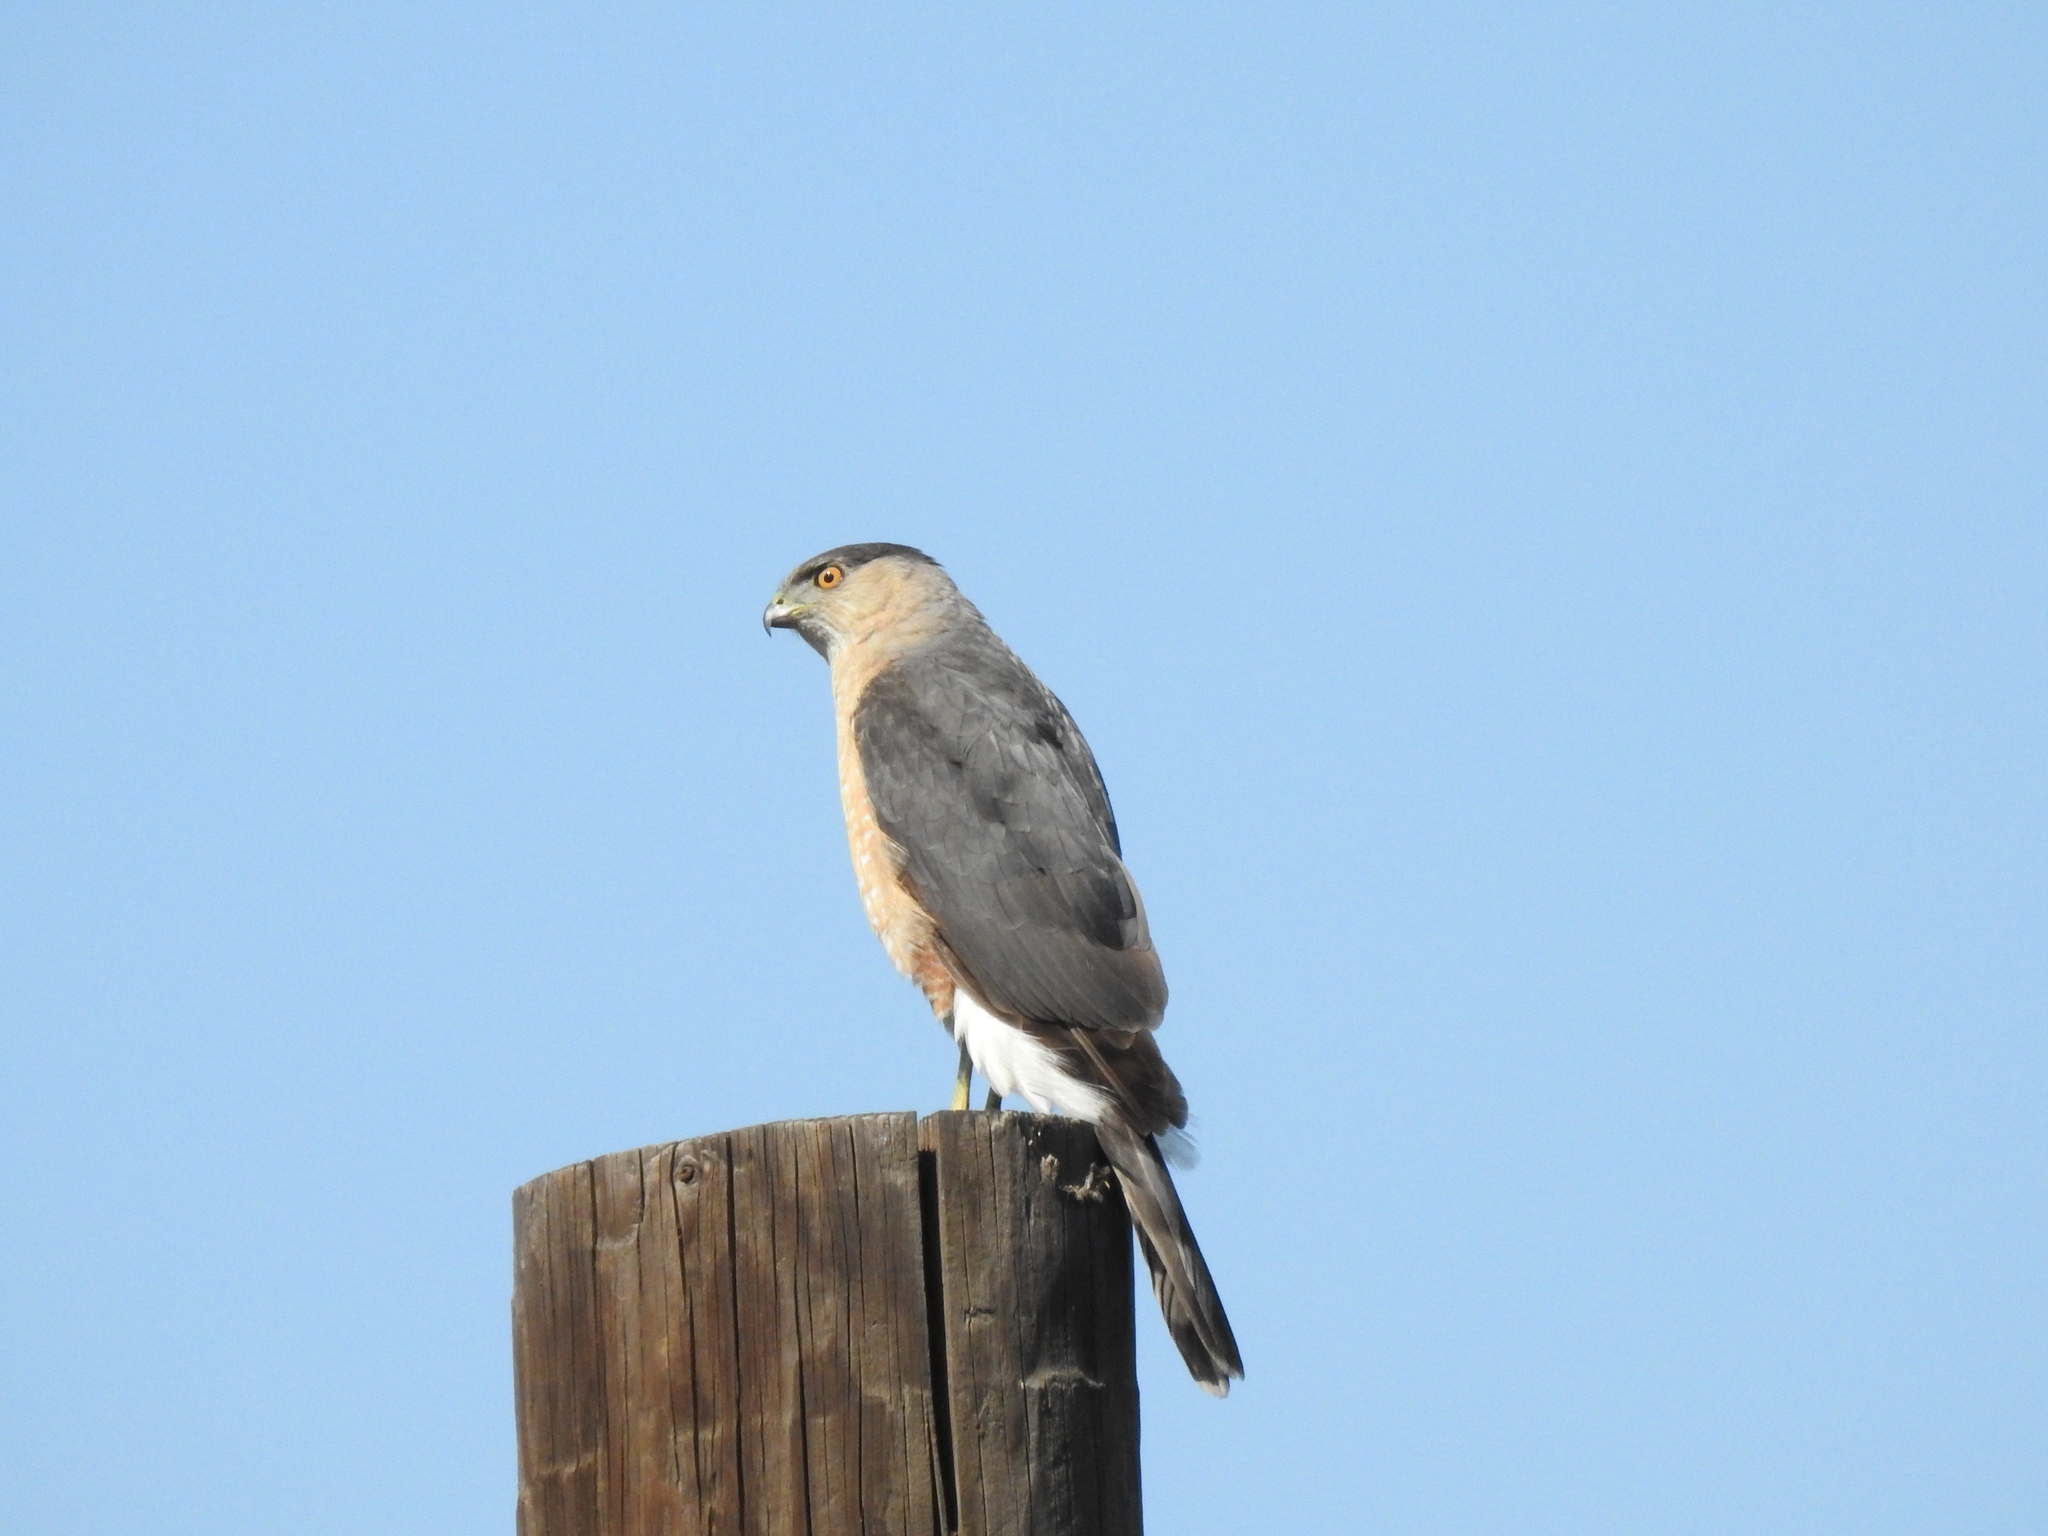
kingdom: Animalia
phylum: Chordata
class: Aves
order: Accipitriformes
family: Accipitridae
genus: Accipiter
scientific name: Accipiter cooperii
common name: Cooper's hawk
